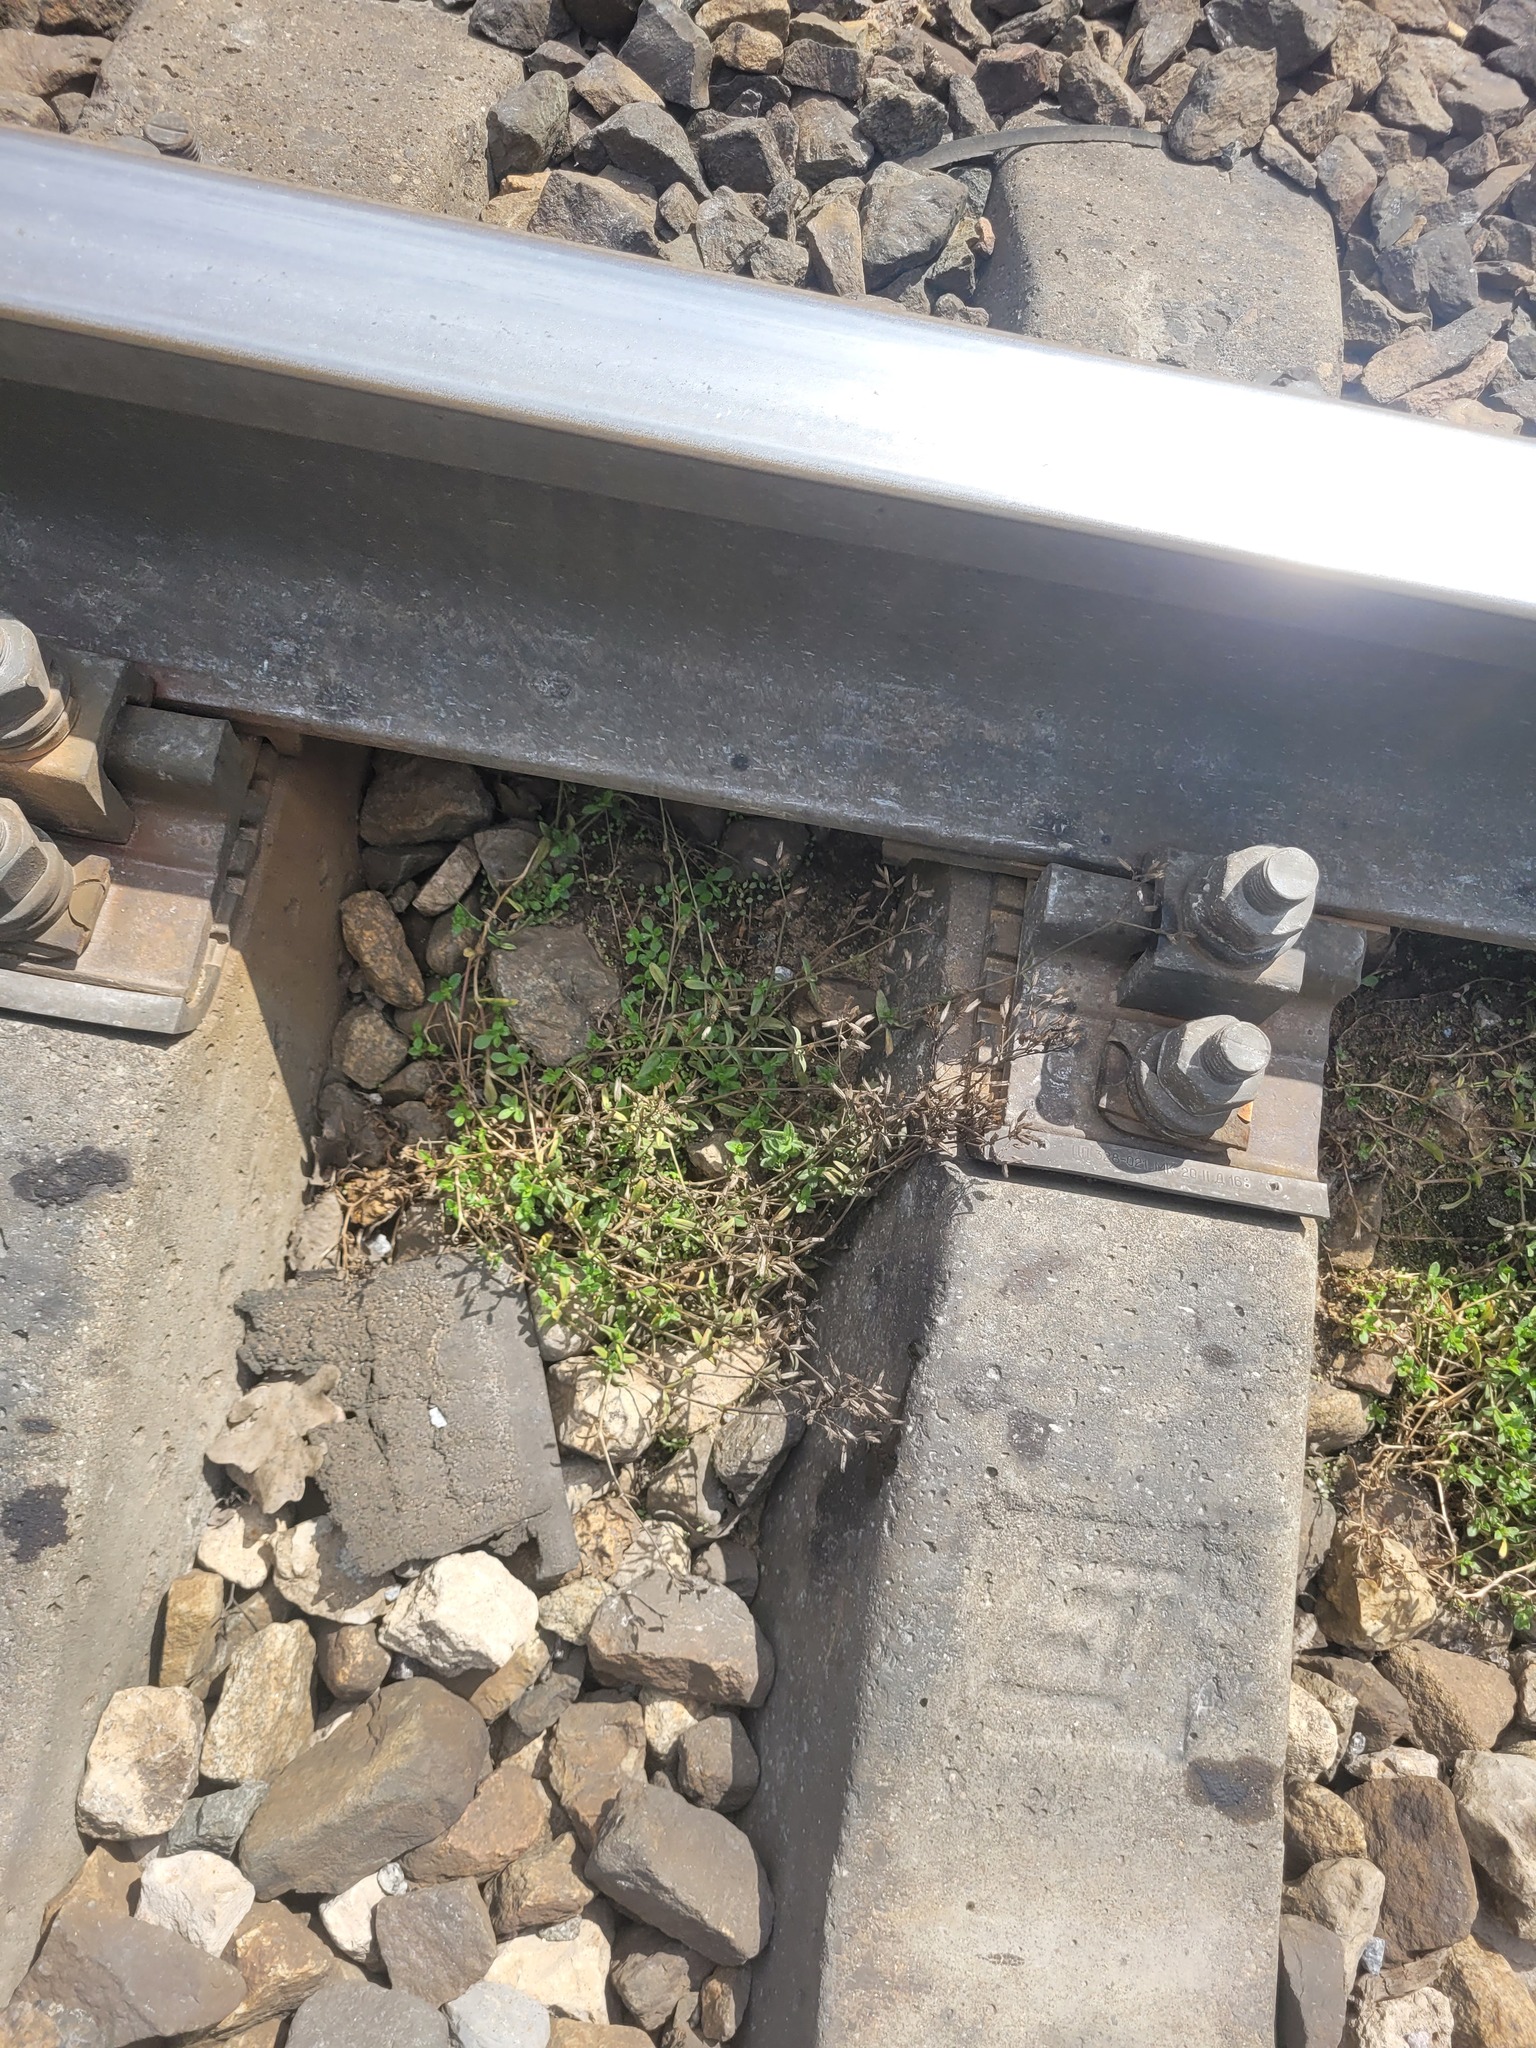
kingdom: Plantae
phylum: Tracheophyta
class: Magnoliopsida
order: Caryophyllales
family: Caryophyllaceae
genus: Cerastium
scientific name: Cerastium holosteoides
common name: Big chickweed
